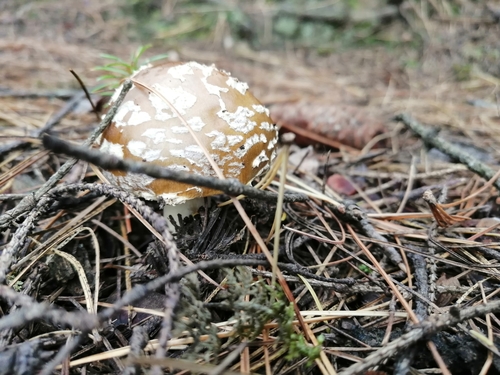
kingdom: Fungi
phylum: Basidiomycota
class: Agaricomycetes
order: Agaricales
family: Amanitaceae
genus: Amanita
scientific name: Amanita regalis
